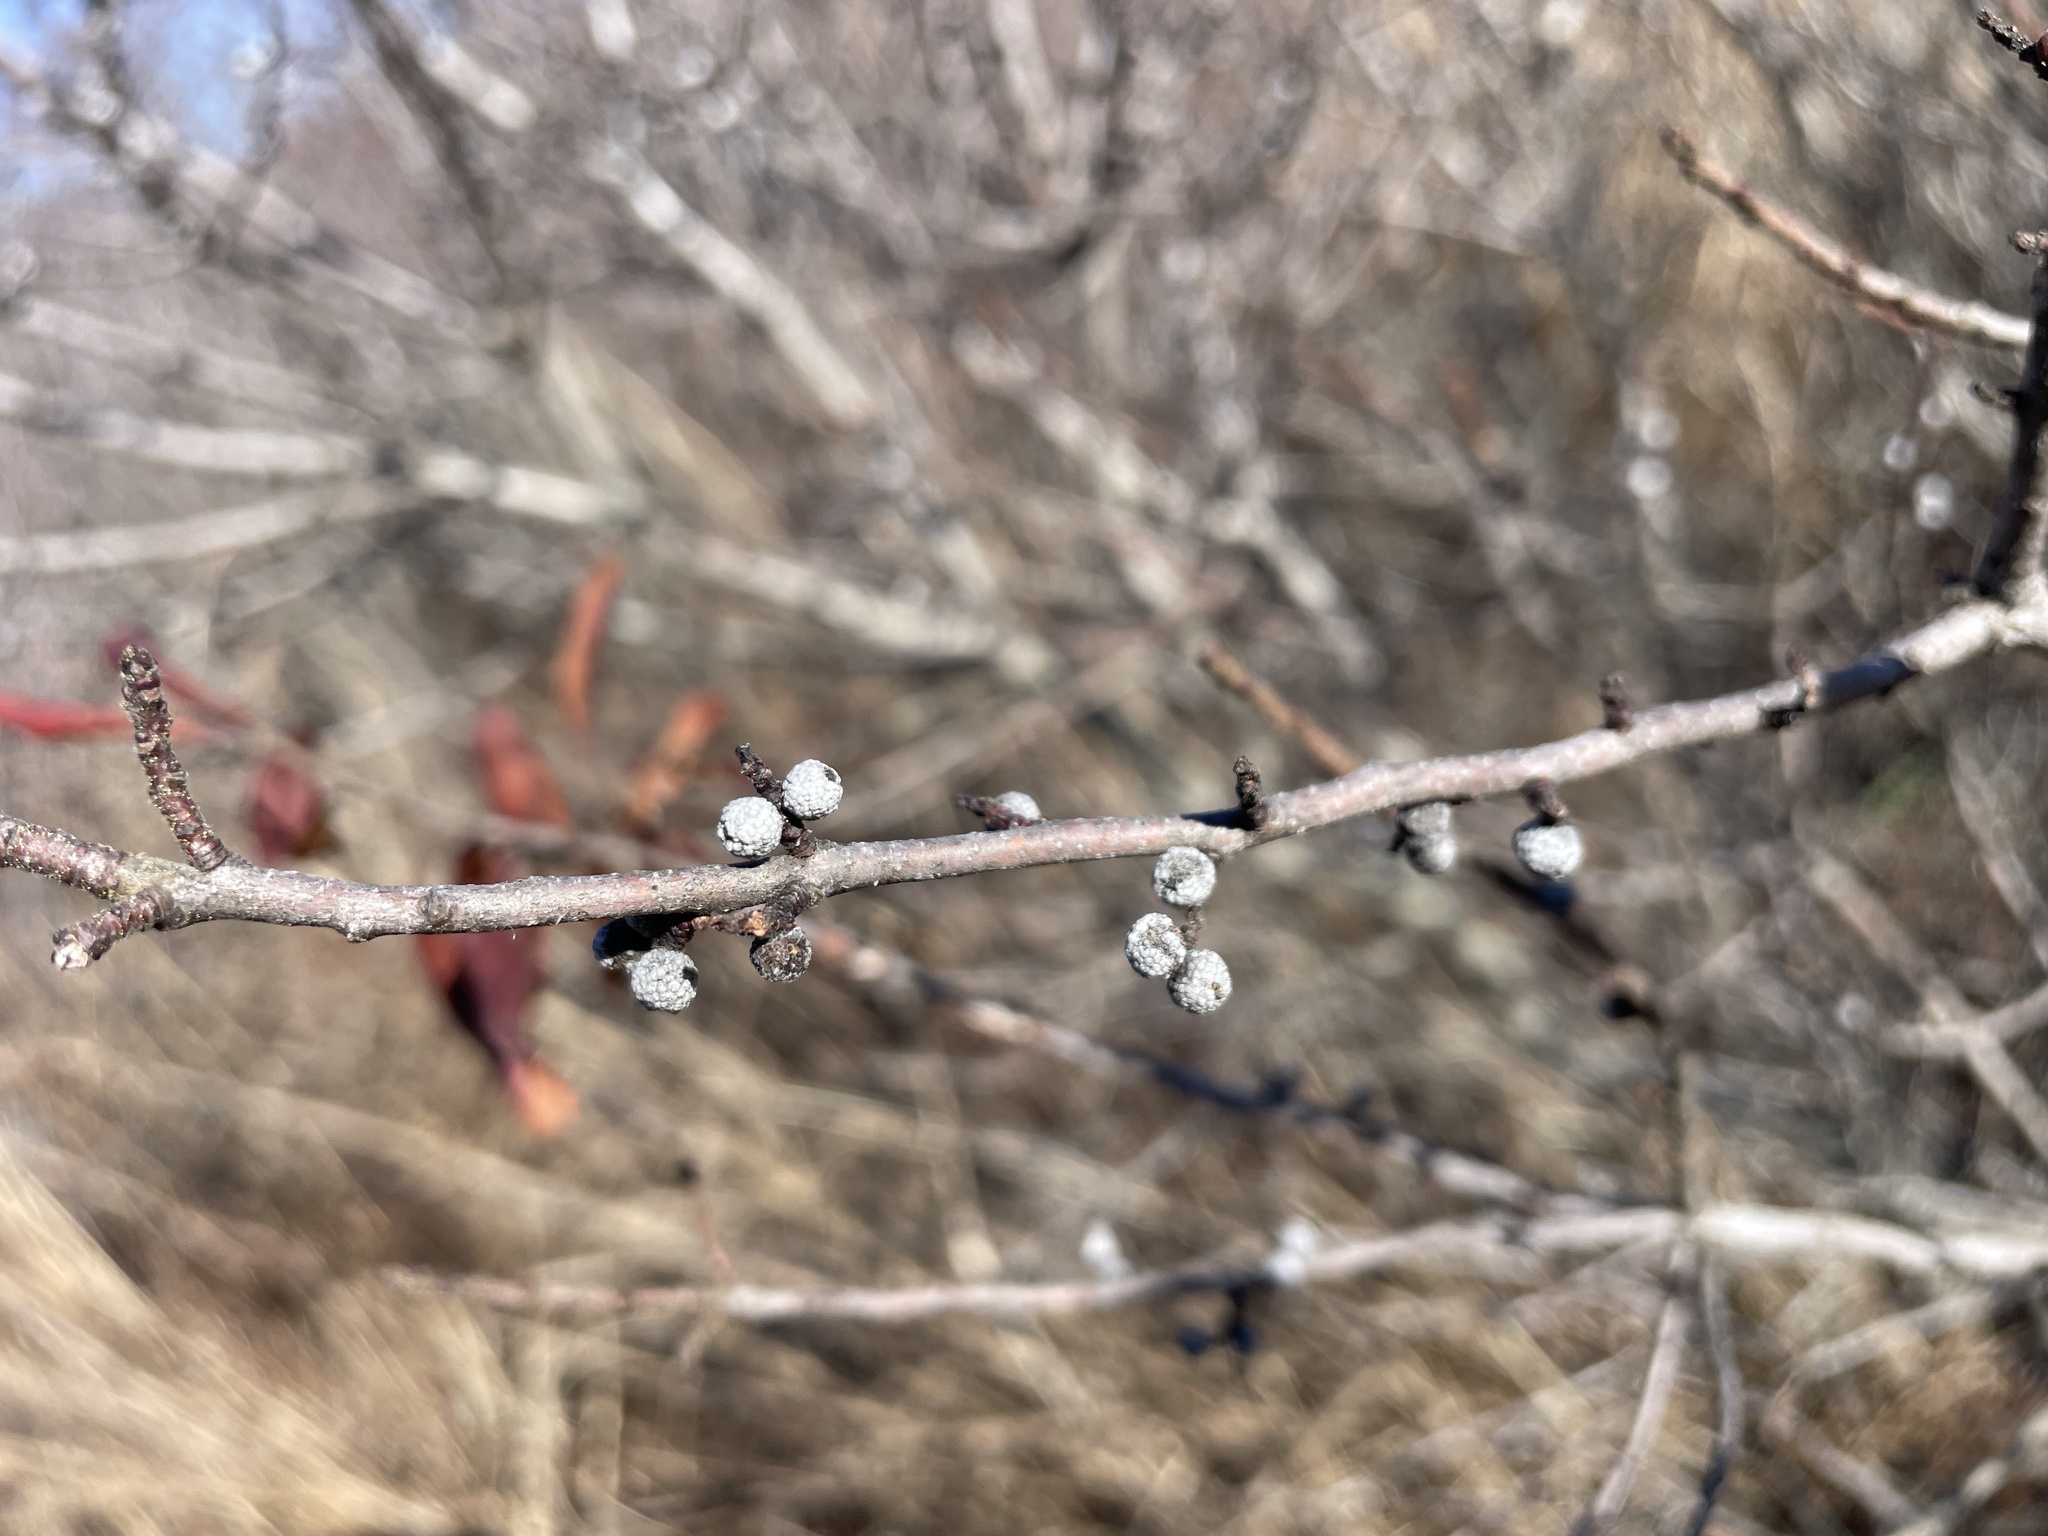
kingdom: Plantae
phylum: Tracheophyta
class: Magnoliopsida
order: Fagales
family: Myricaceae
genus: Morella
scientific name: Morella pensylvanica
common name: Northern bayberry
